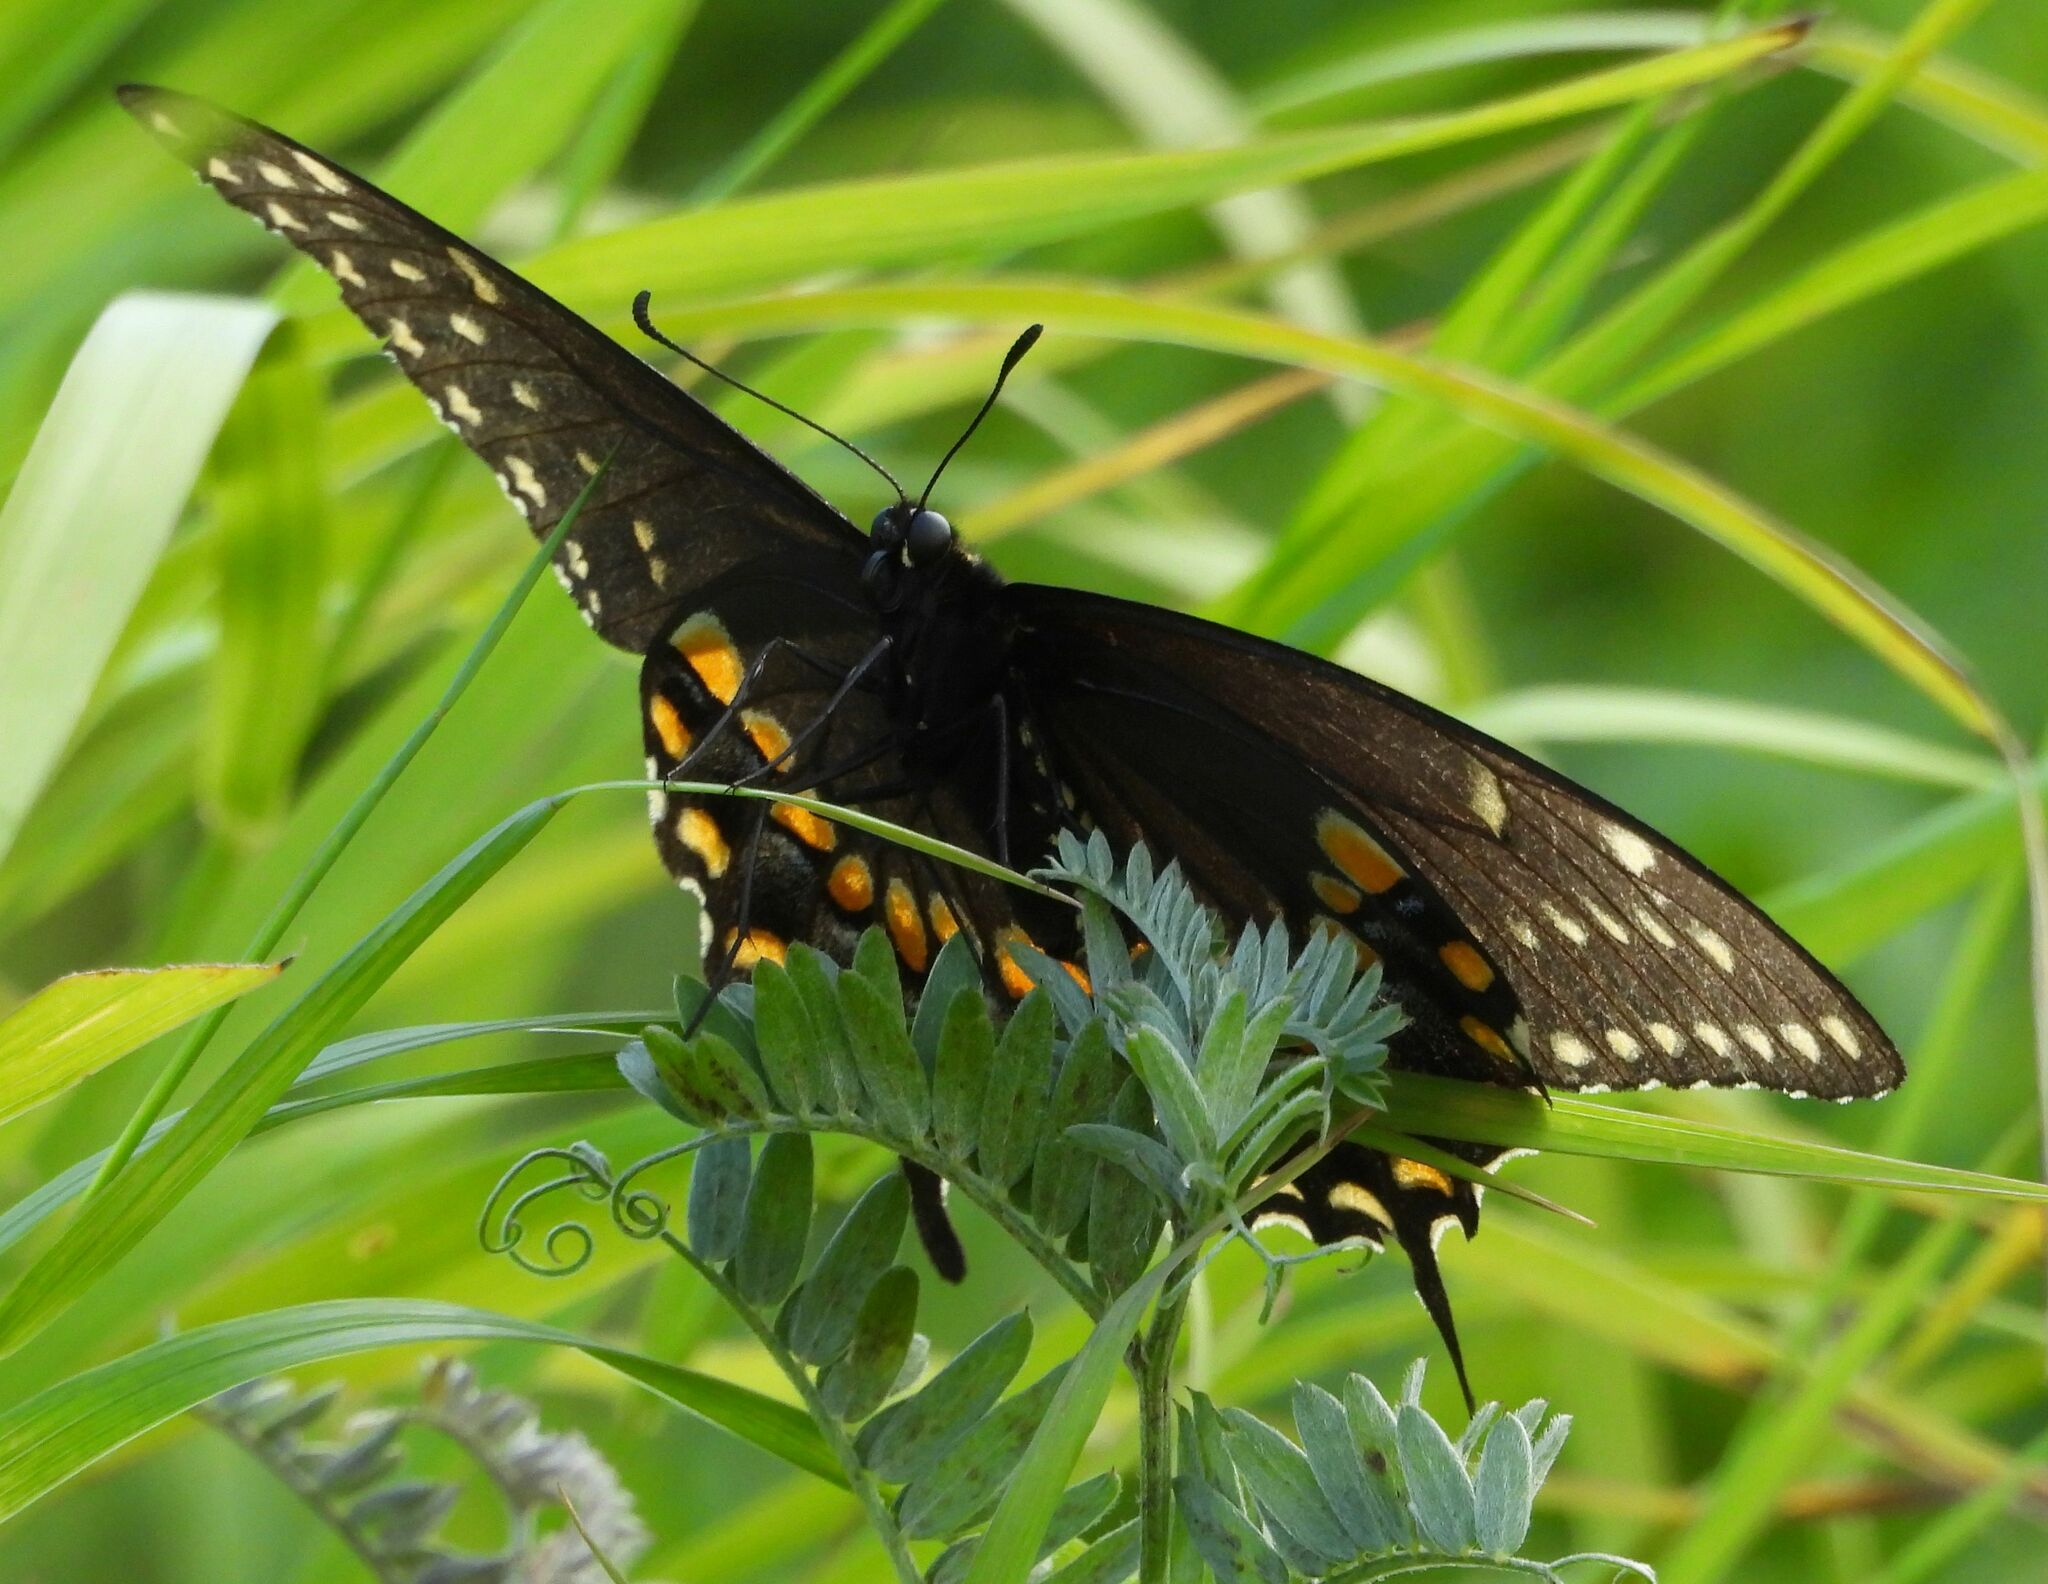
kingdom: Animalia
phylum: Arthropoda
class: Insecta
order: Lepidoptera
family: Papilionidae
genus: Papilio
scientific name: Papilio polyxenes
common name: Black swallowtail
